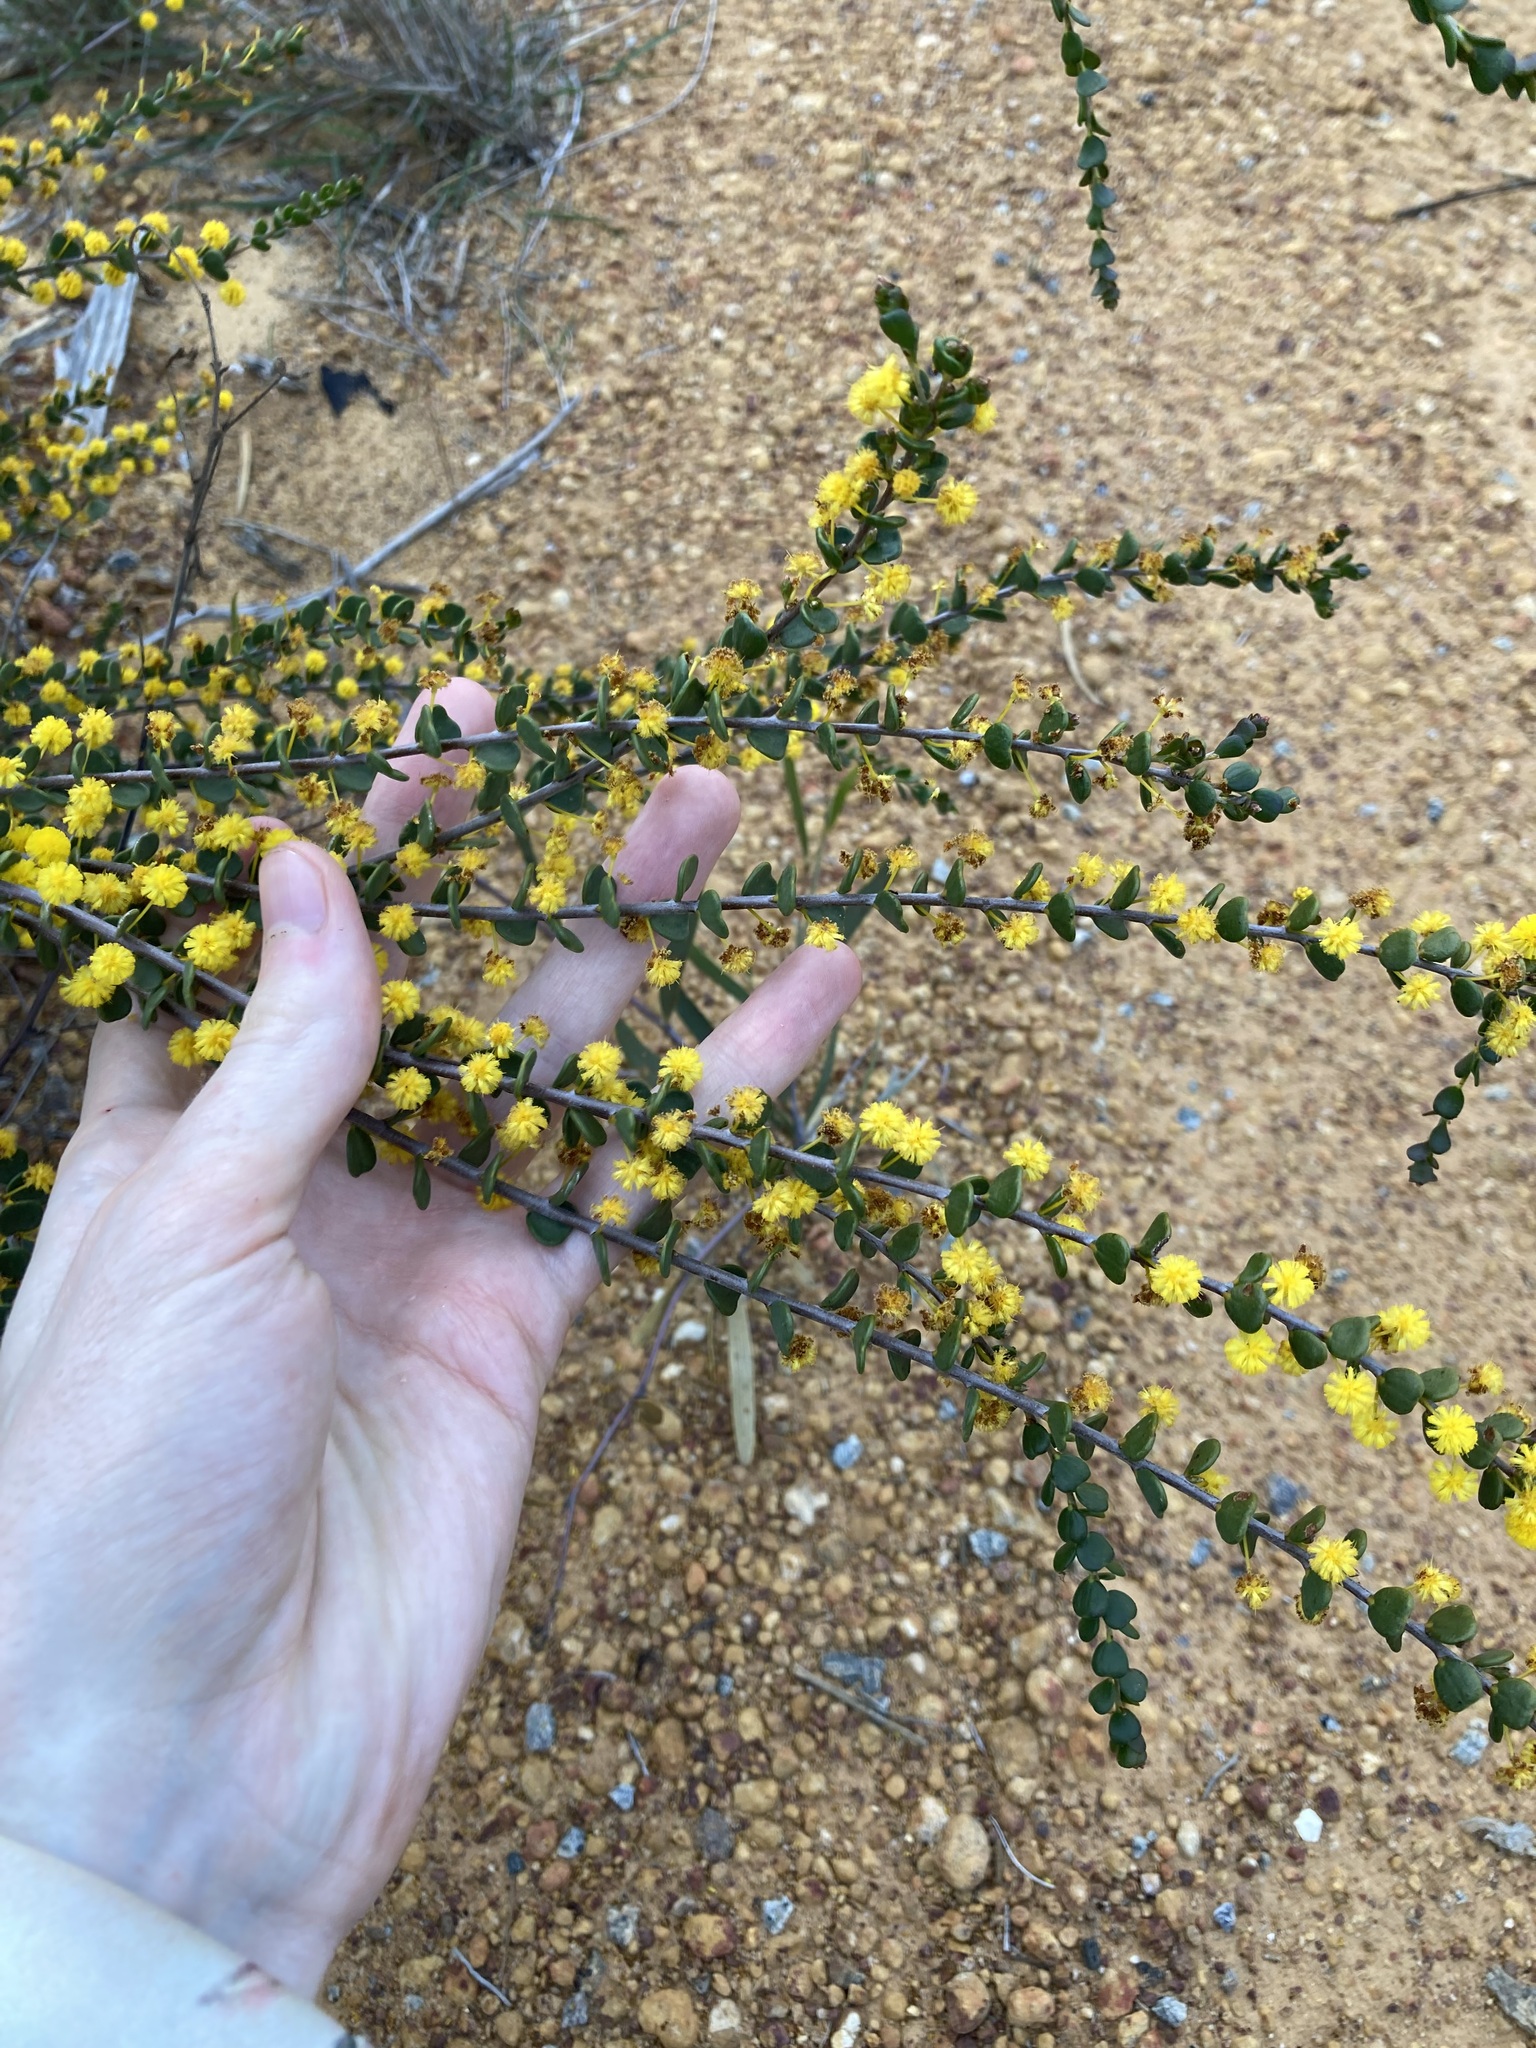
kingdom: Plantae
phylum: Tracheophyta
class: Magnoliopsida
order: Fabales
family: Fabaceae
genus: Acacia
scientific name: Acacia leptospermoides
